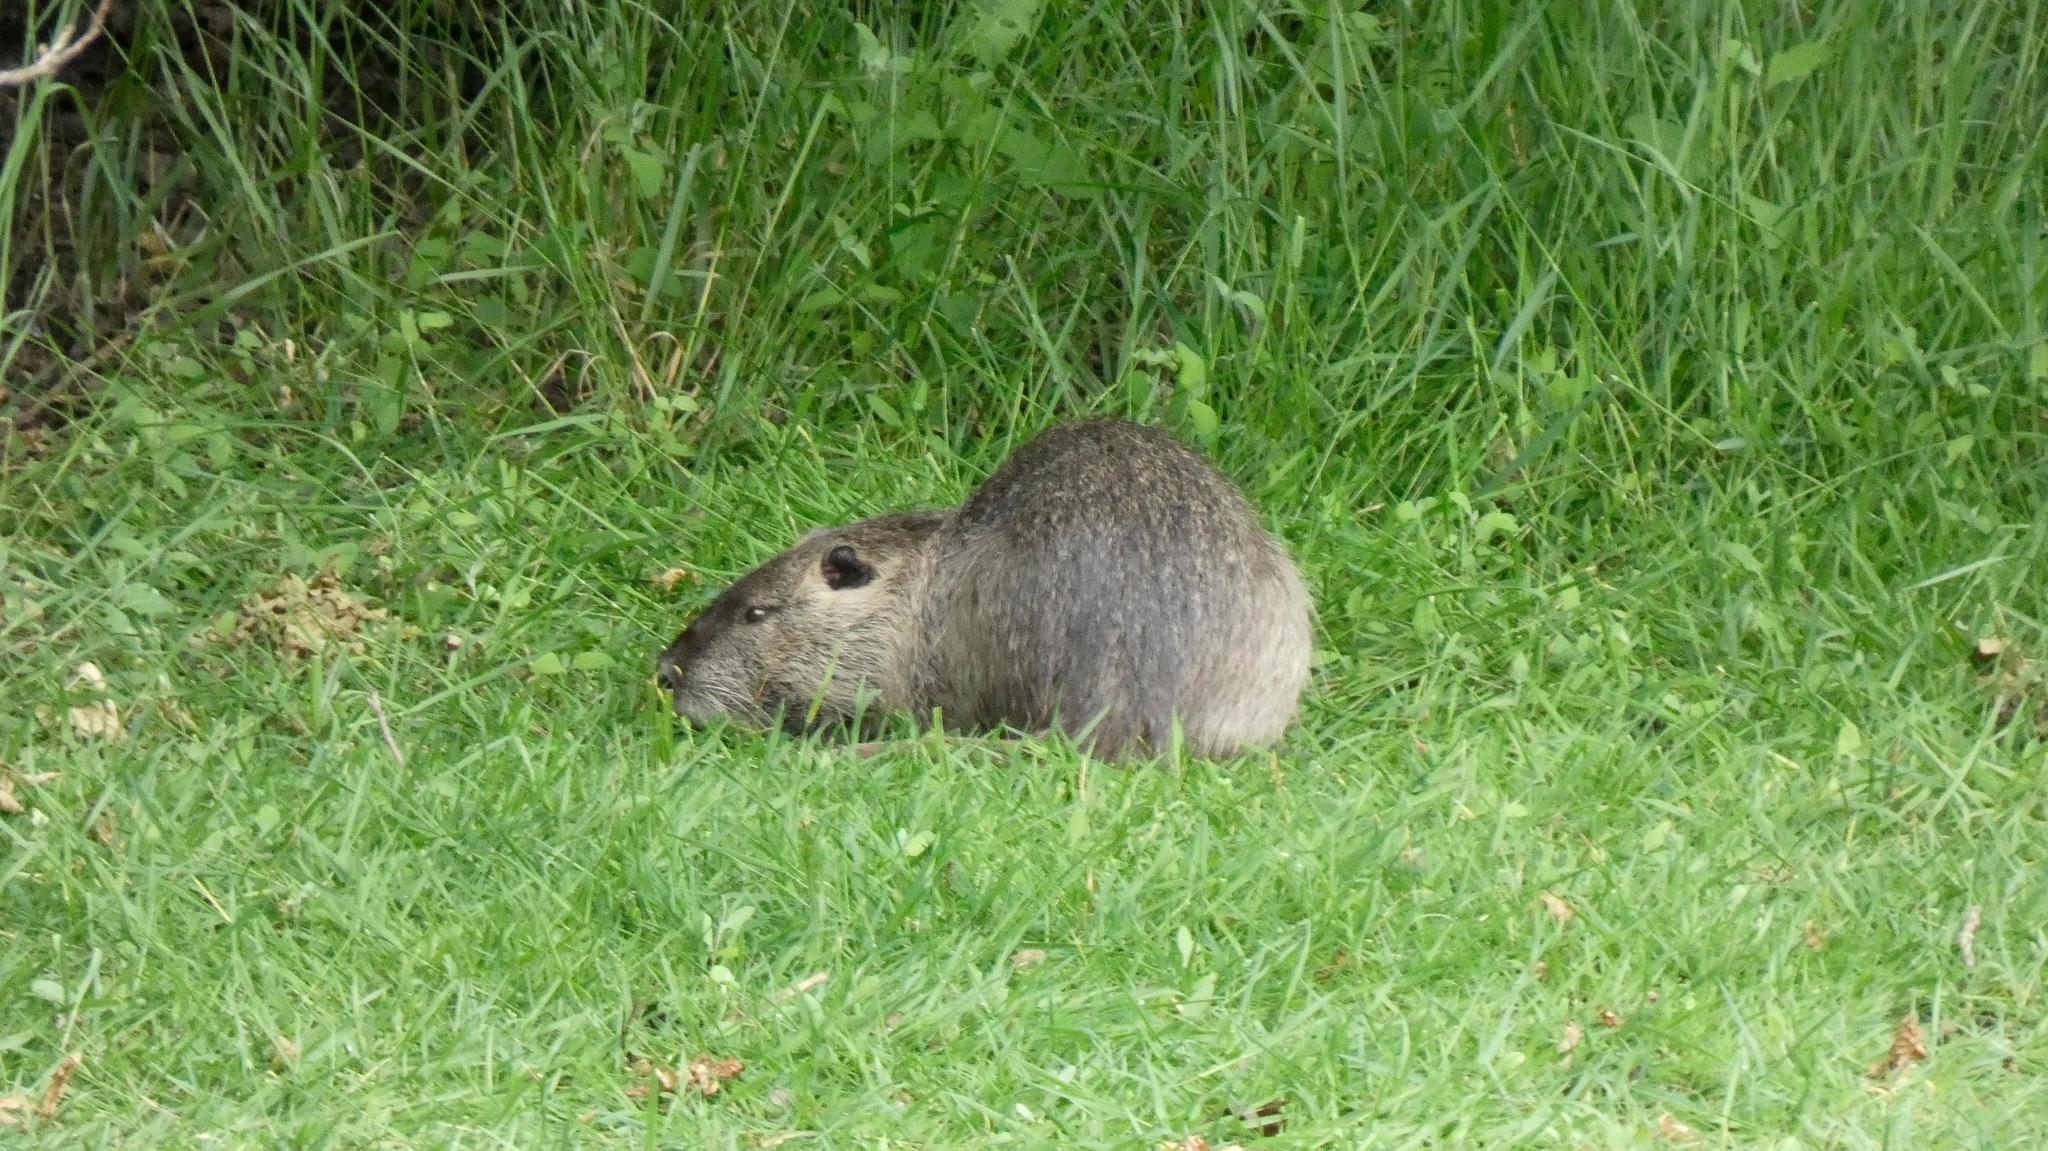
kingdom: Animalia
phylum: Chordata
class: Mammalia
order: Rodentia
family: Myocastoridae
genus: Myocastor
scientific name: Myocastor coypus
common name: Coypu
